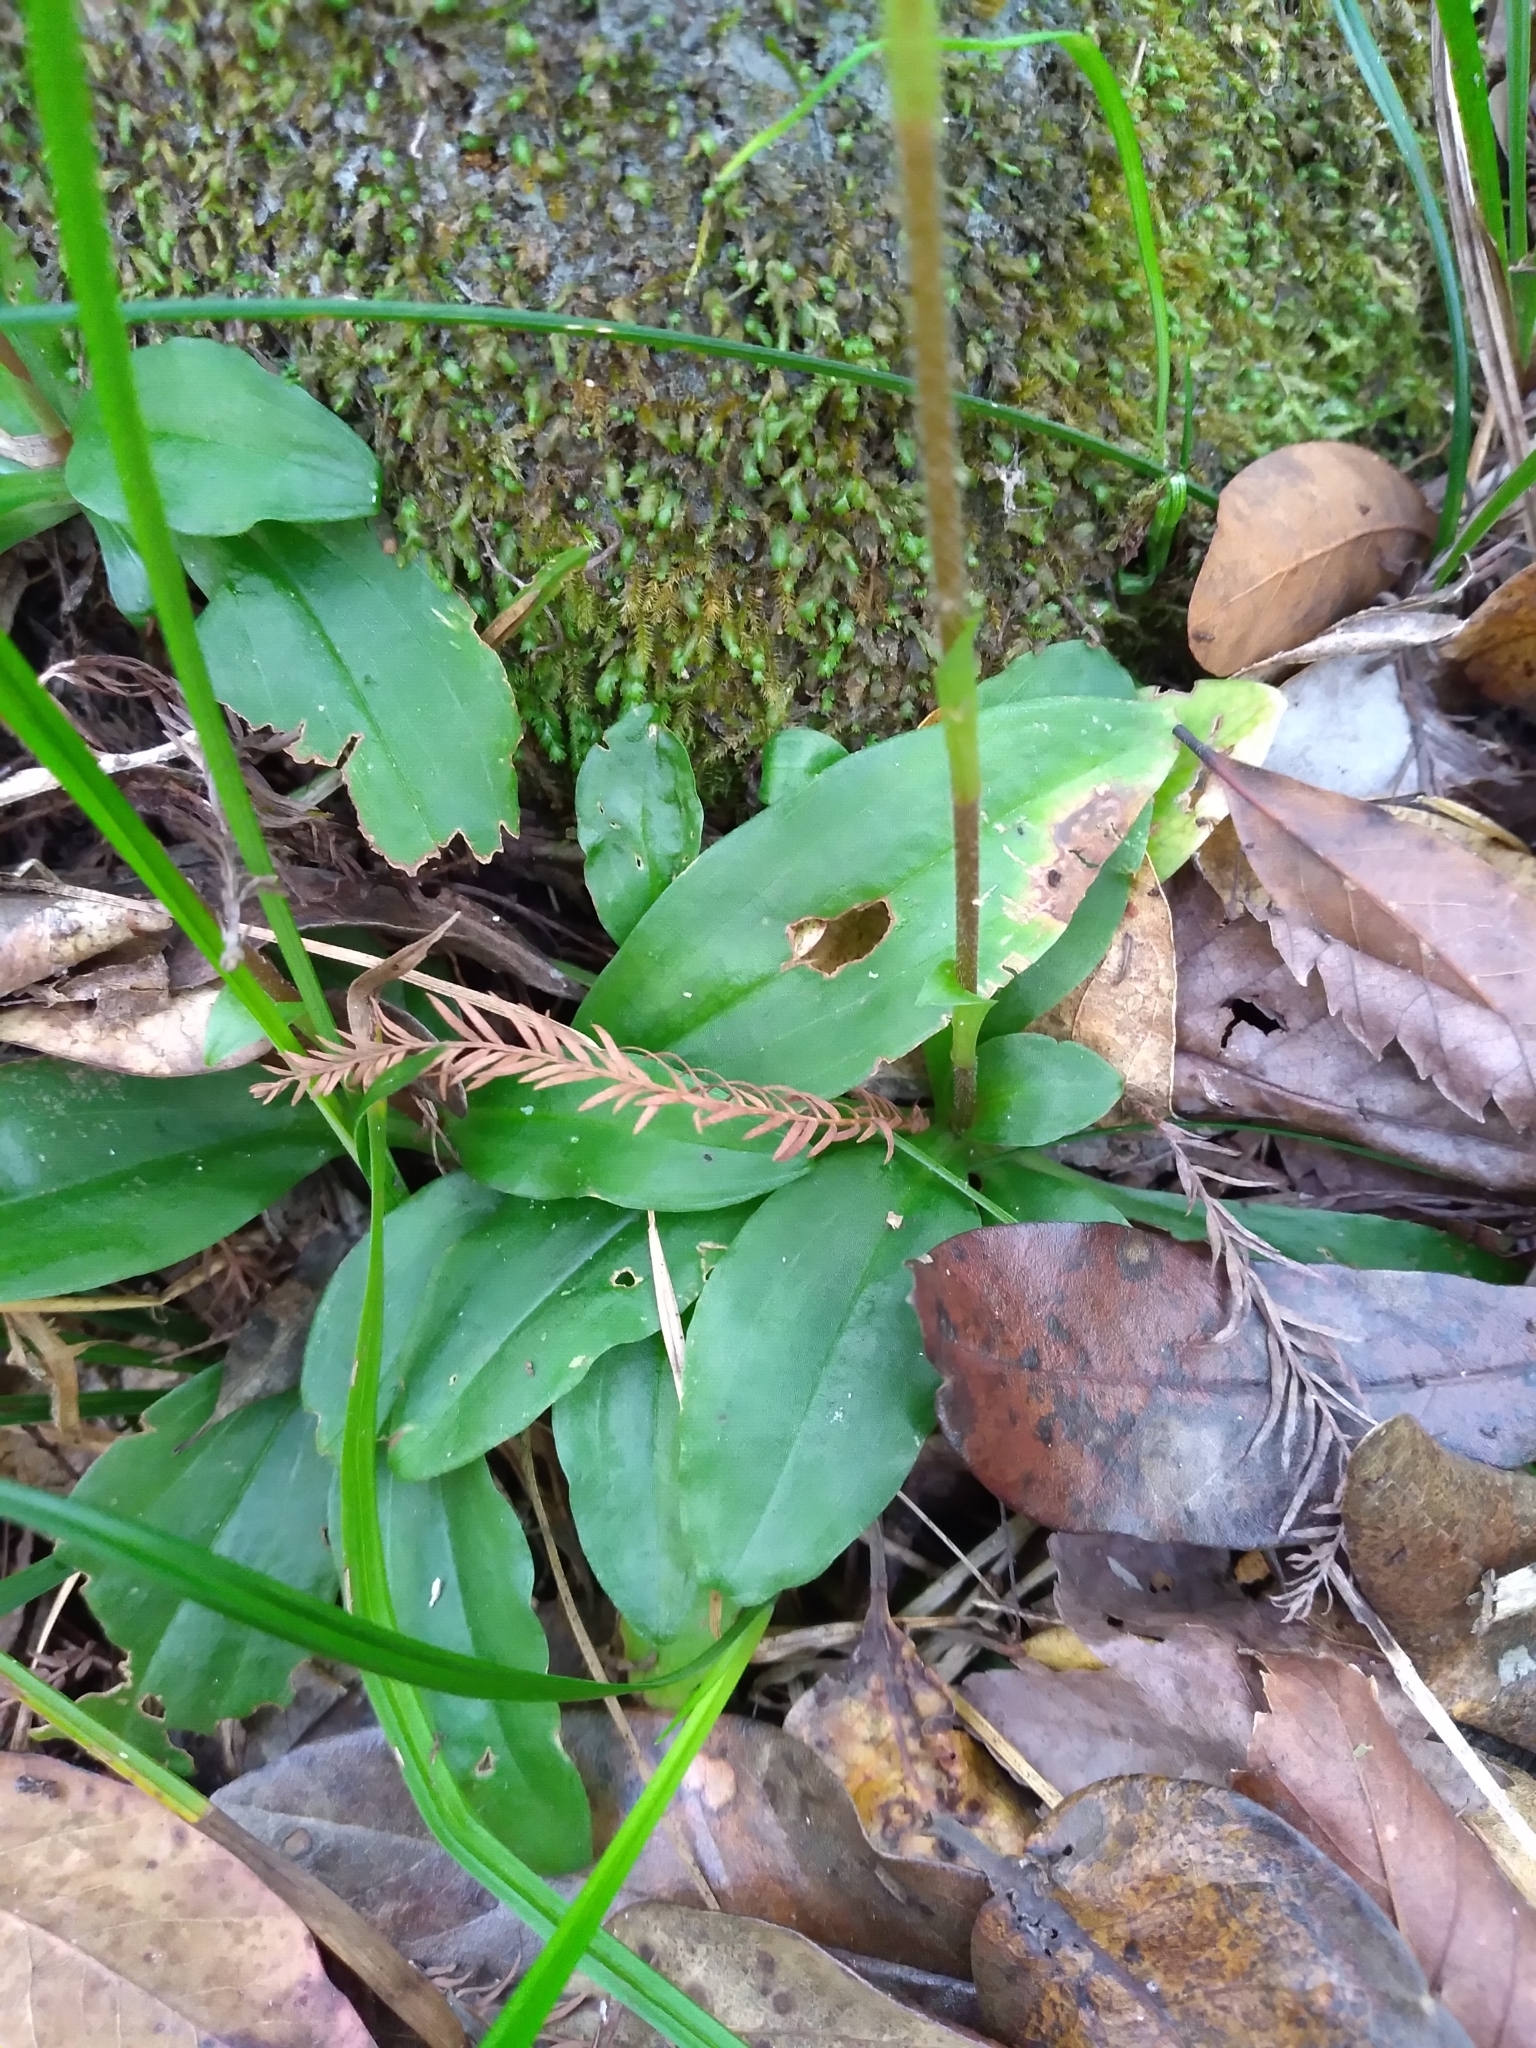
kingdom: Plantae
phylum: Tracheophyta
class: Liliopsida
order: Asparagales
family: Orchidaceae
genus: Ponthieva
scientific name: Ponthieva racemosa
